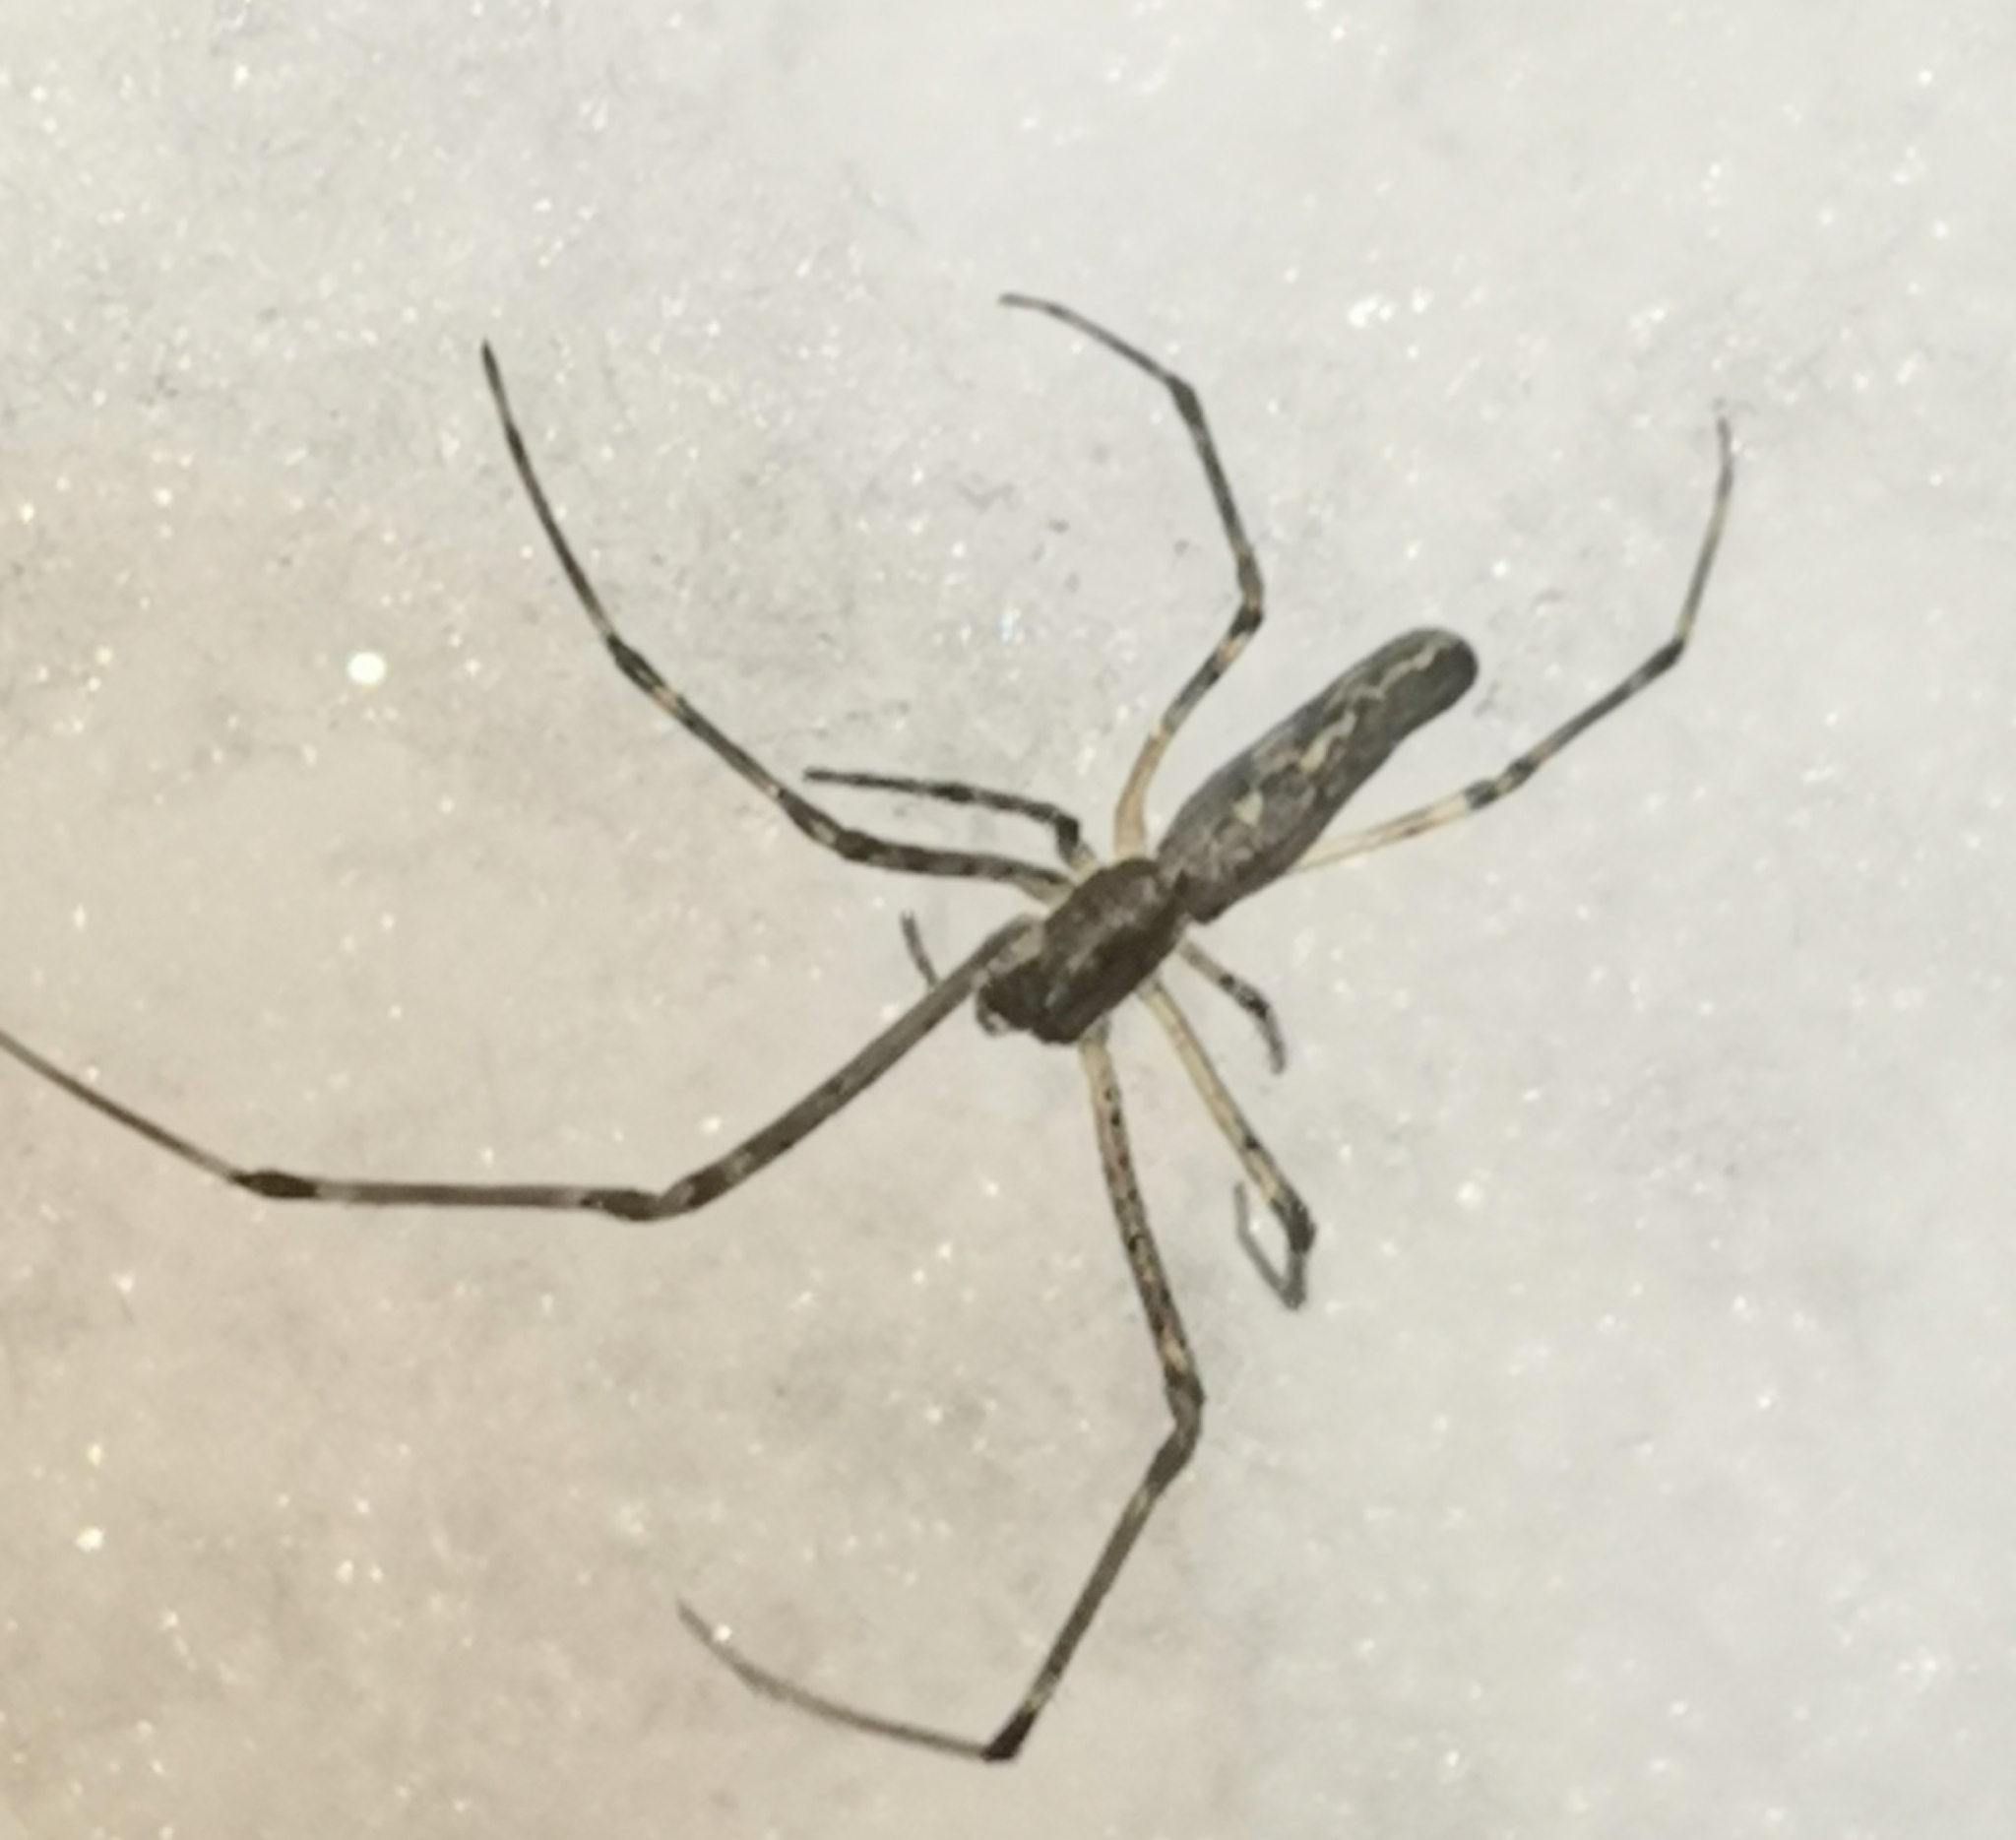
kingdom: Animalia
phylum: Arthropoda
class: Arachnida
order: Araneae
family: Tetragnathidae
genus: Tetragnatha
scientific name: Tetragnatha obtusa
